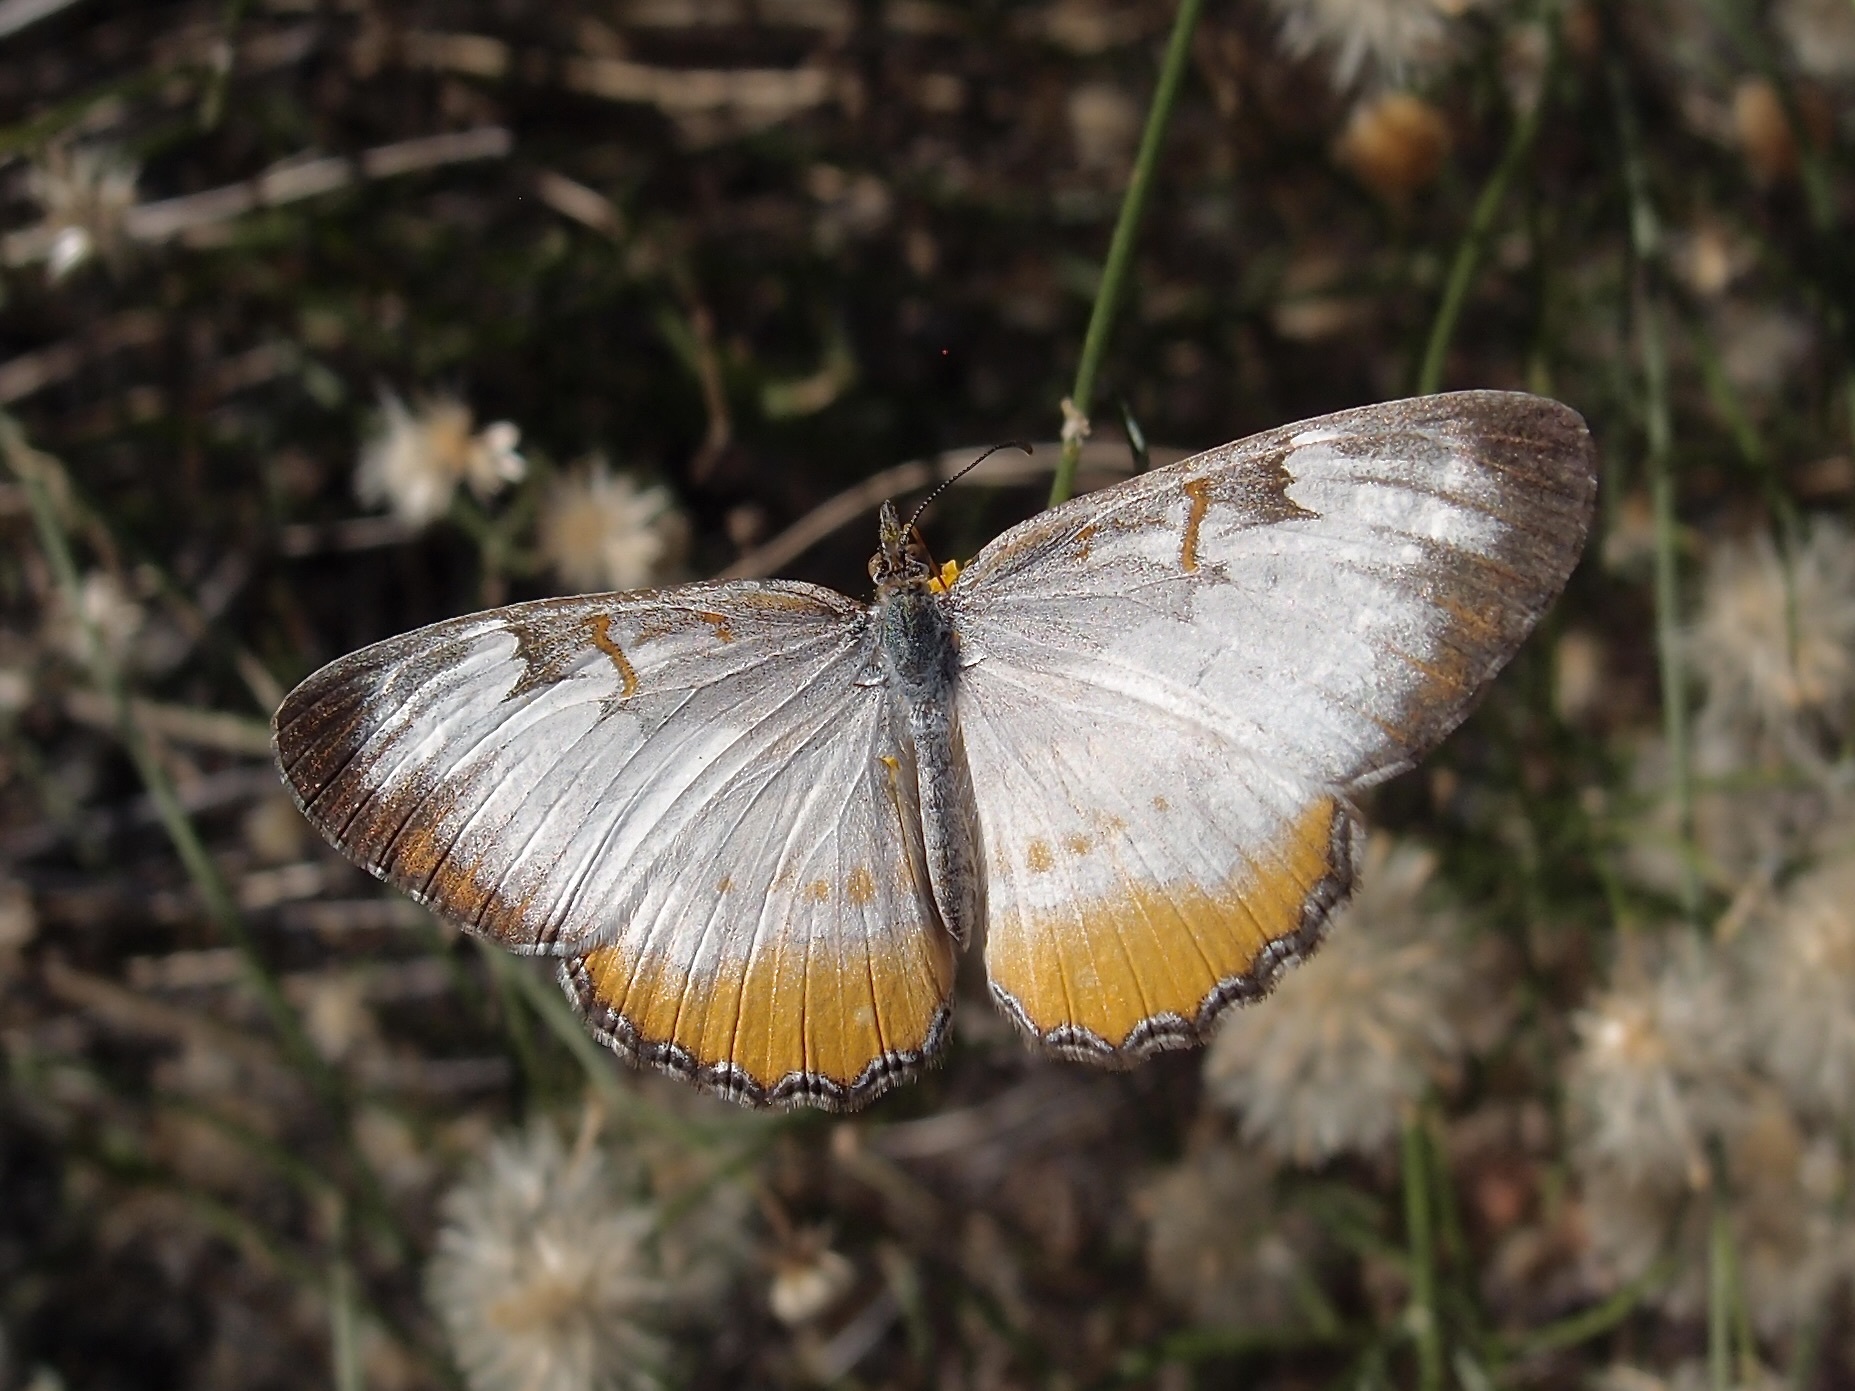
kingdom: Animalia
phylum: Arthropoda
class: Insecta
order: Lepidoptera
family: Nymphalidae
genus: Mestra
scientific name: Mestra amymone
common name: Common mestra
